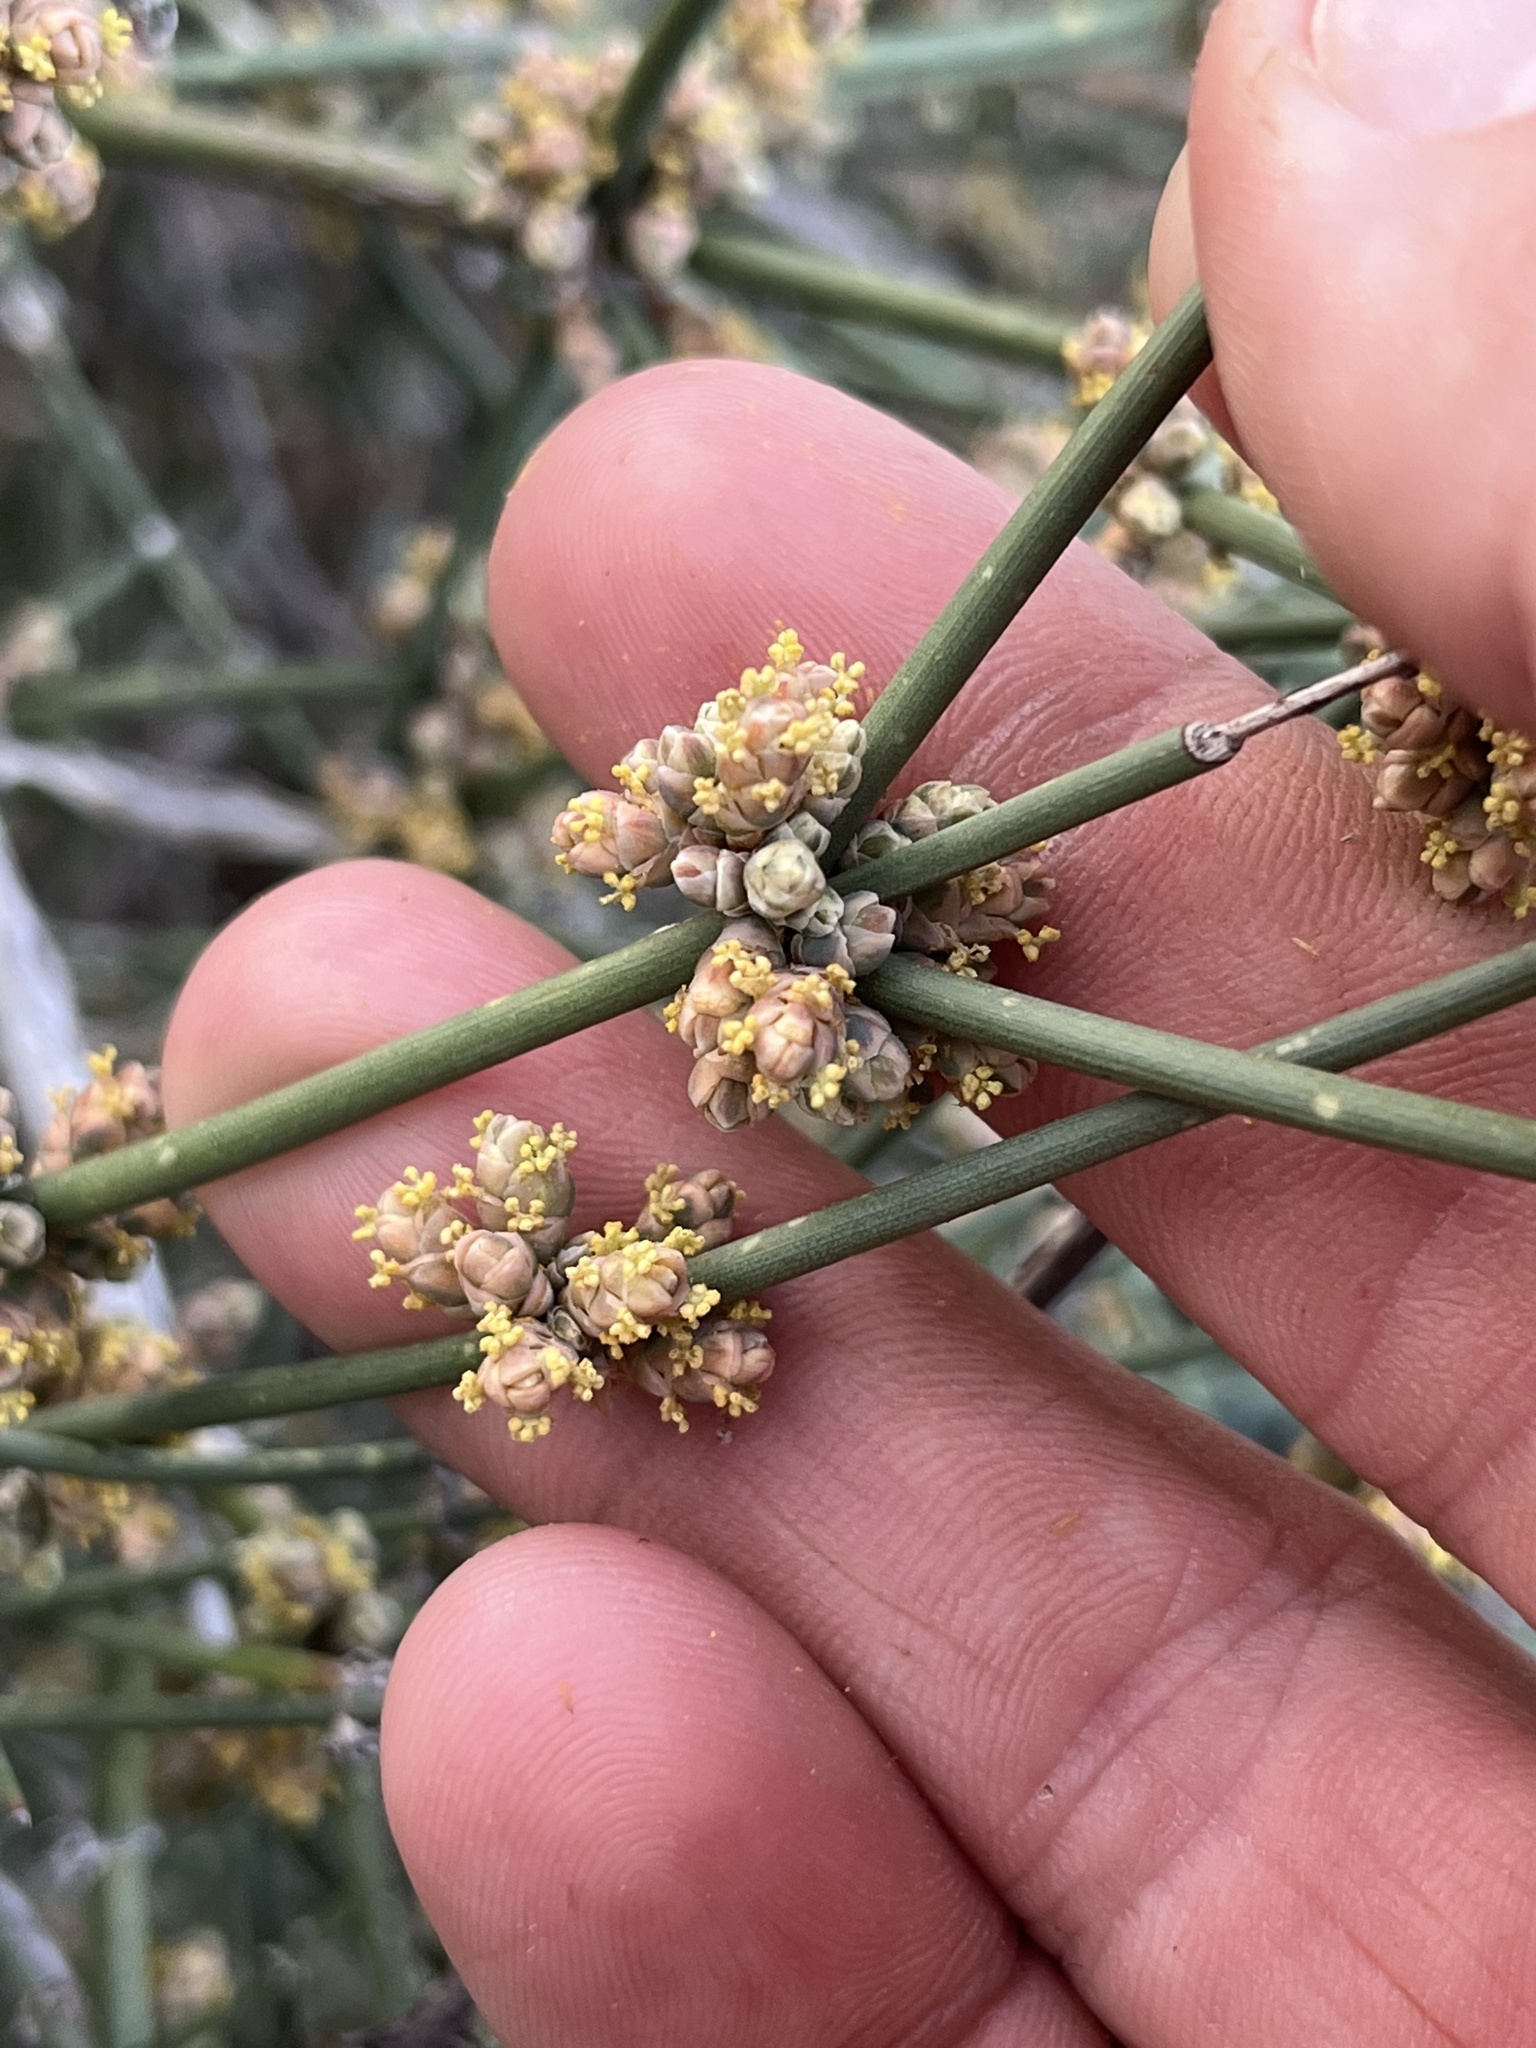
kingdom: Plantae
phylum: Tracheophyta
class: Gnetopsida
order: Ephedrales
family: Ephedraceae
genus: Ephedra
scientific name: Ephedra antisyphilitica
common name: Clipweed
